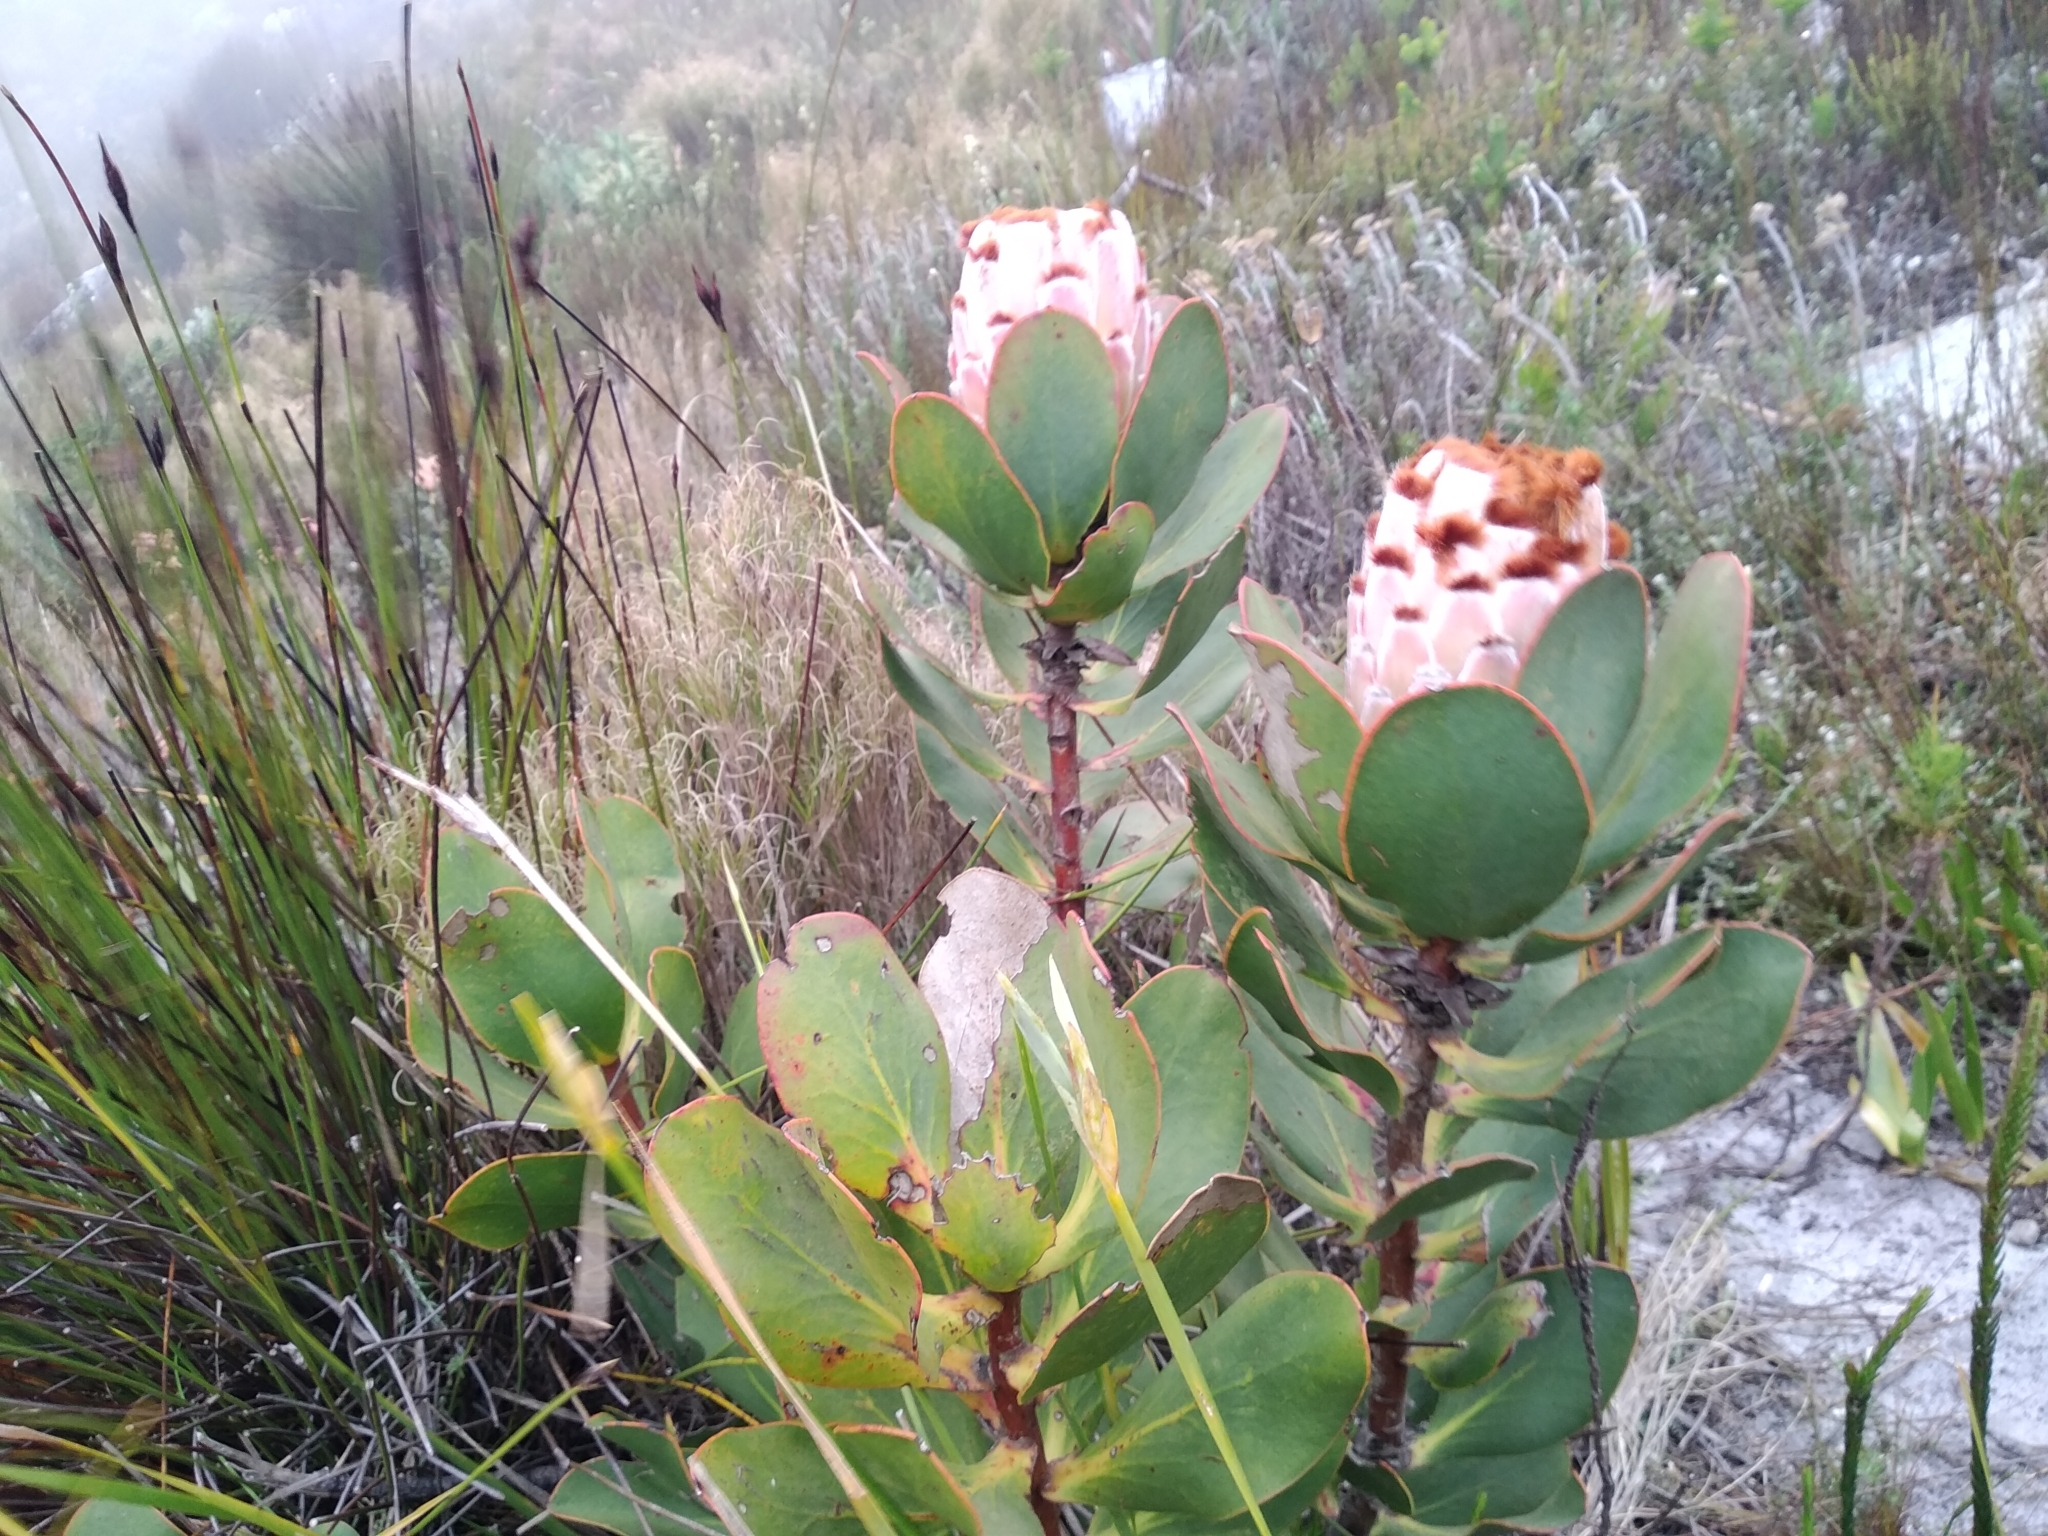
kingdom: Plantae
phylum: Tracheophyta
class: Magnoliopsida
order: Proteales
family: Proteaceae
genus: Protea
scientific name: Protea speciosa
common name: Brown-beard sugarbush
